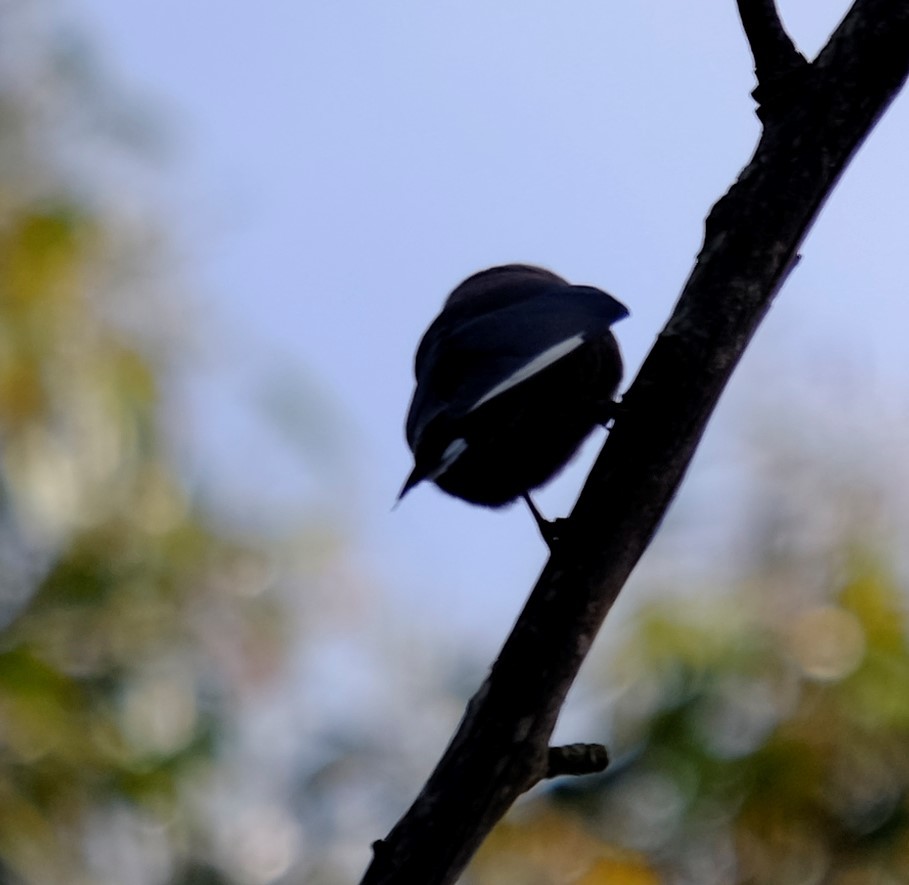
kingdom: Animalia
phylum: Chordata
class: Aves
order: Passeriformes
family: Artamidae
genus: Artamus
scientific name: Artamus cyanopterus
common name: Dusky woodswallow
